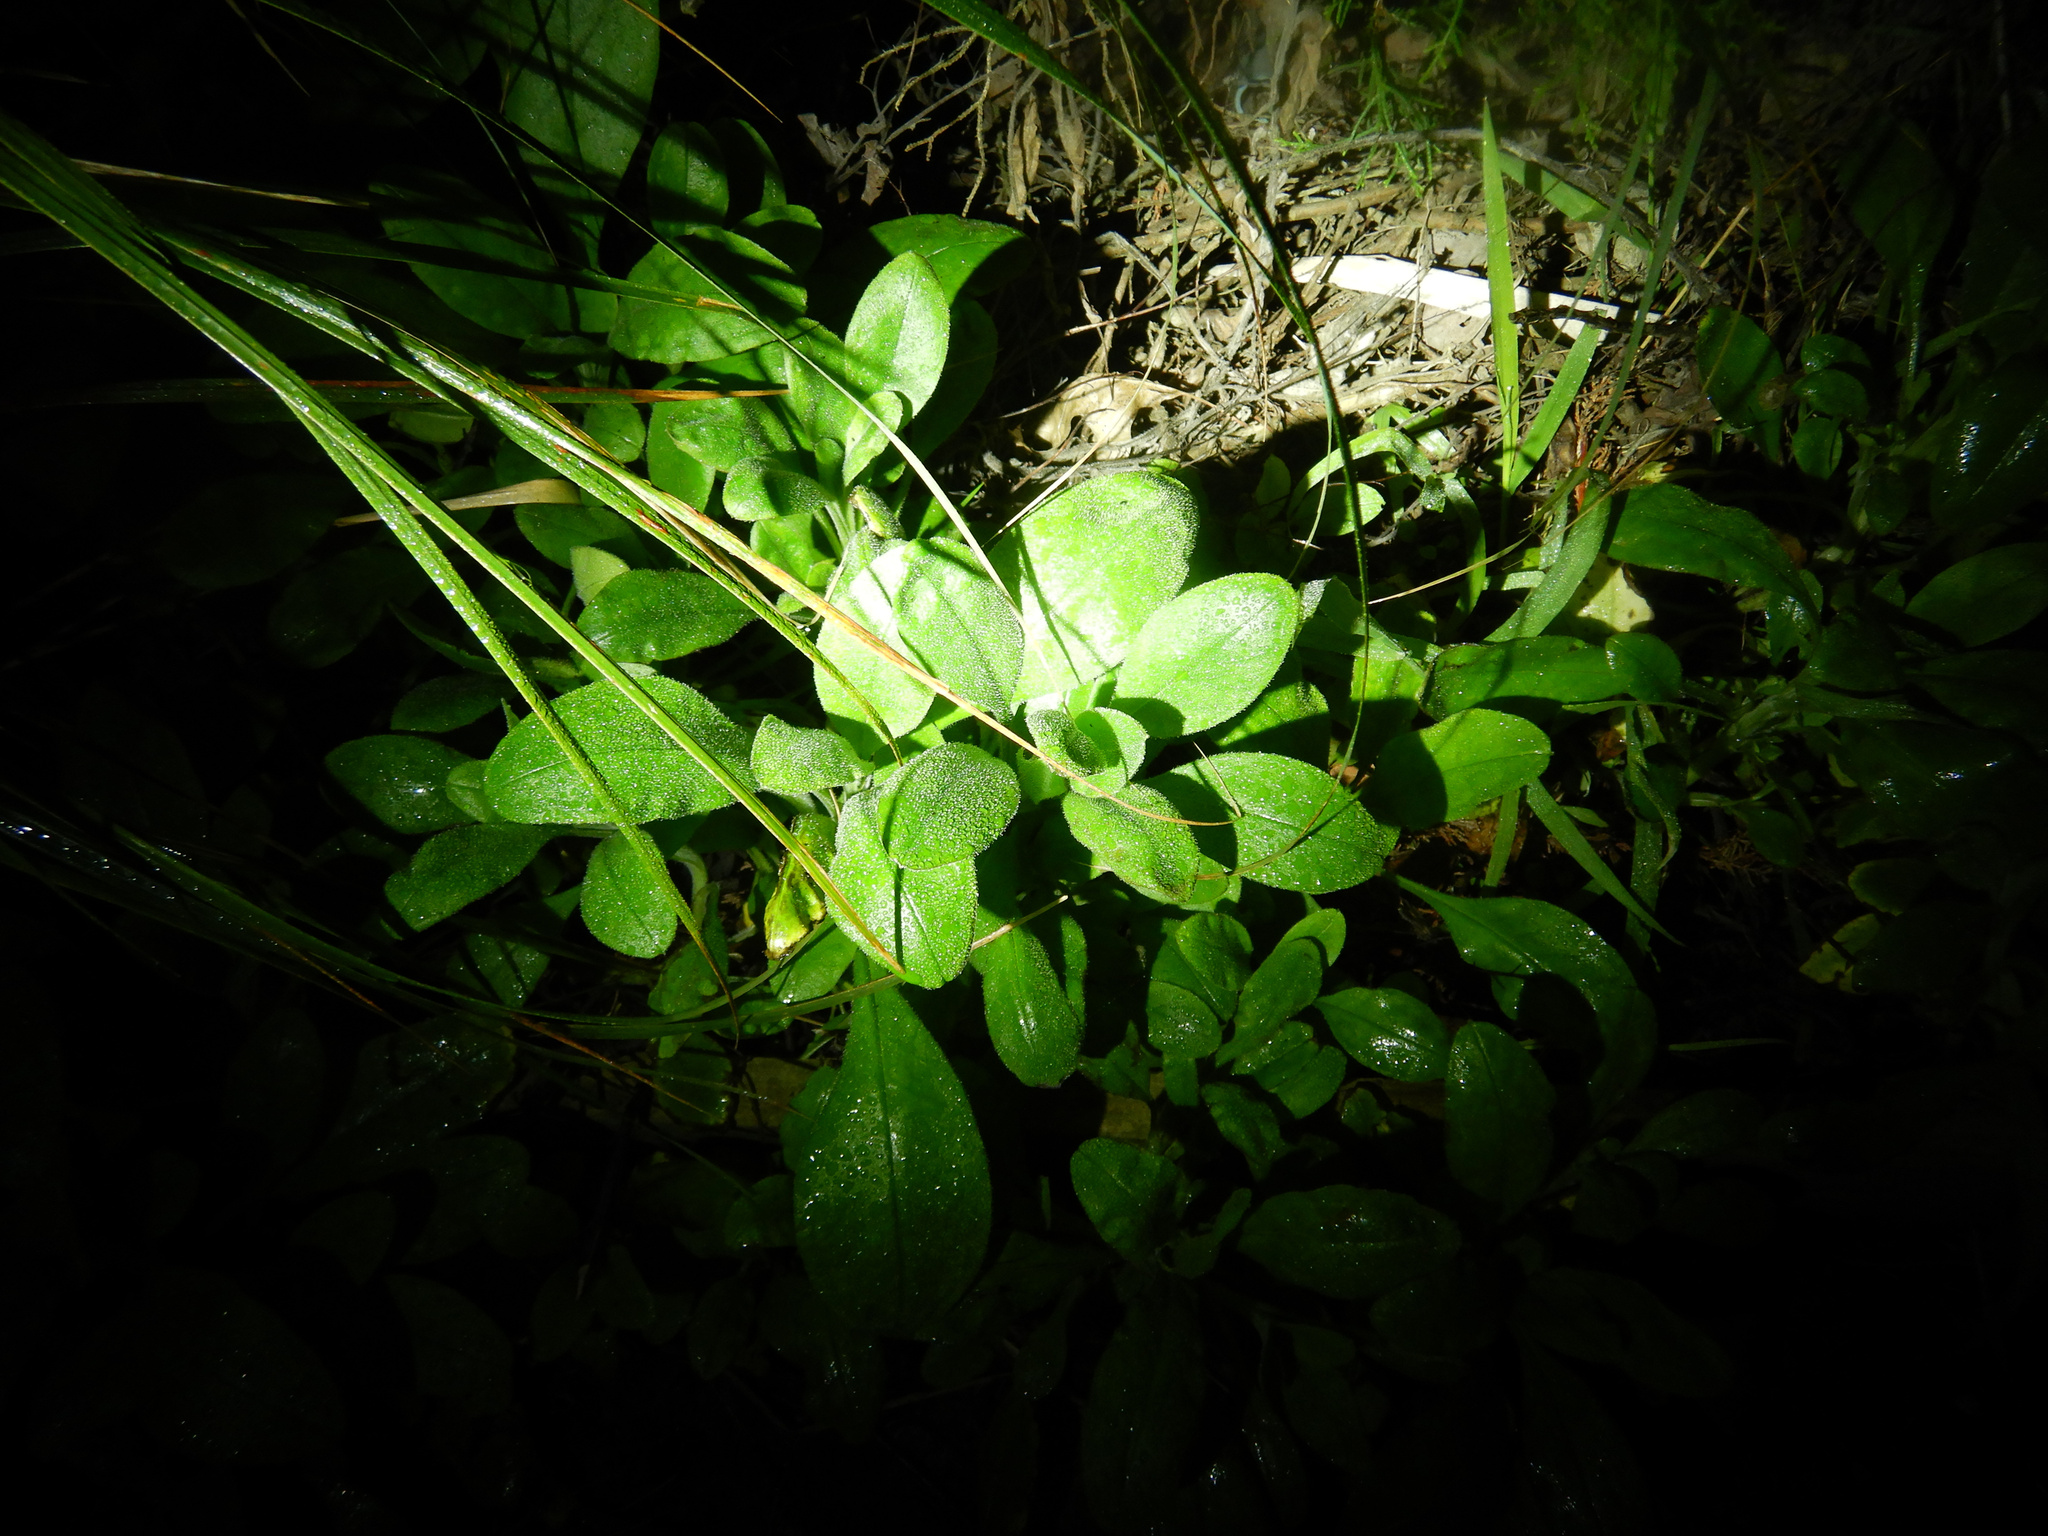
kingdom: Plantae
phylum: Tracheophyta
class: Magnoliopsida
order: Boraginales
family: Boraginaceae
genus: Myosotis
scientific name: Myosotis sylvatica
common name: Wood forget-me-not
